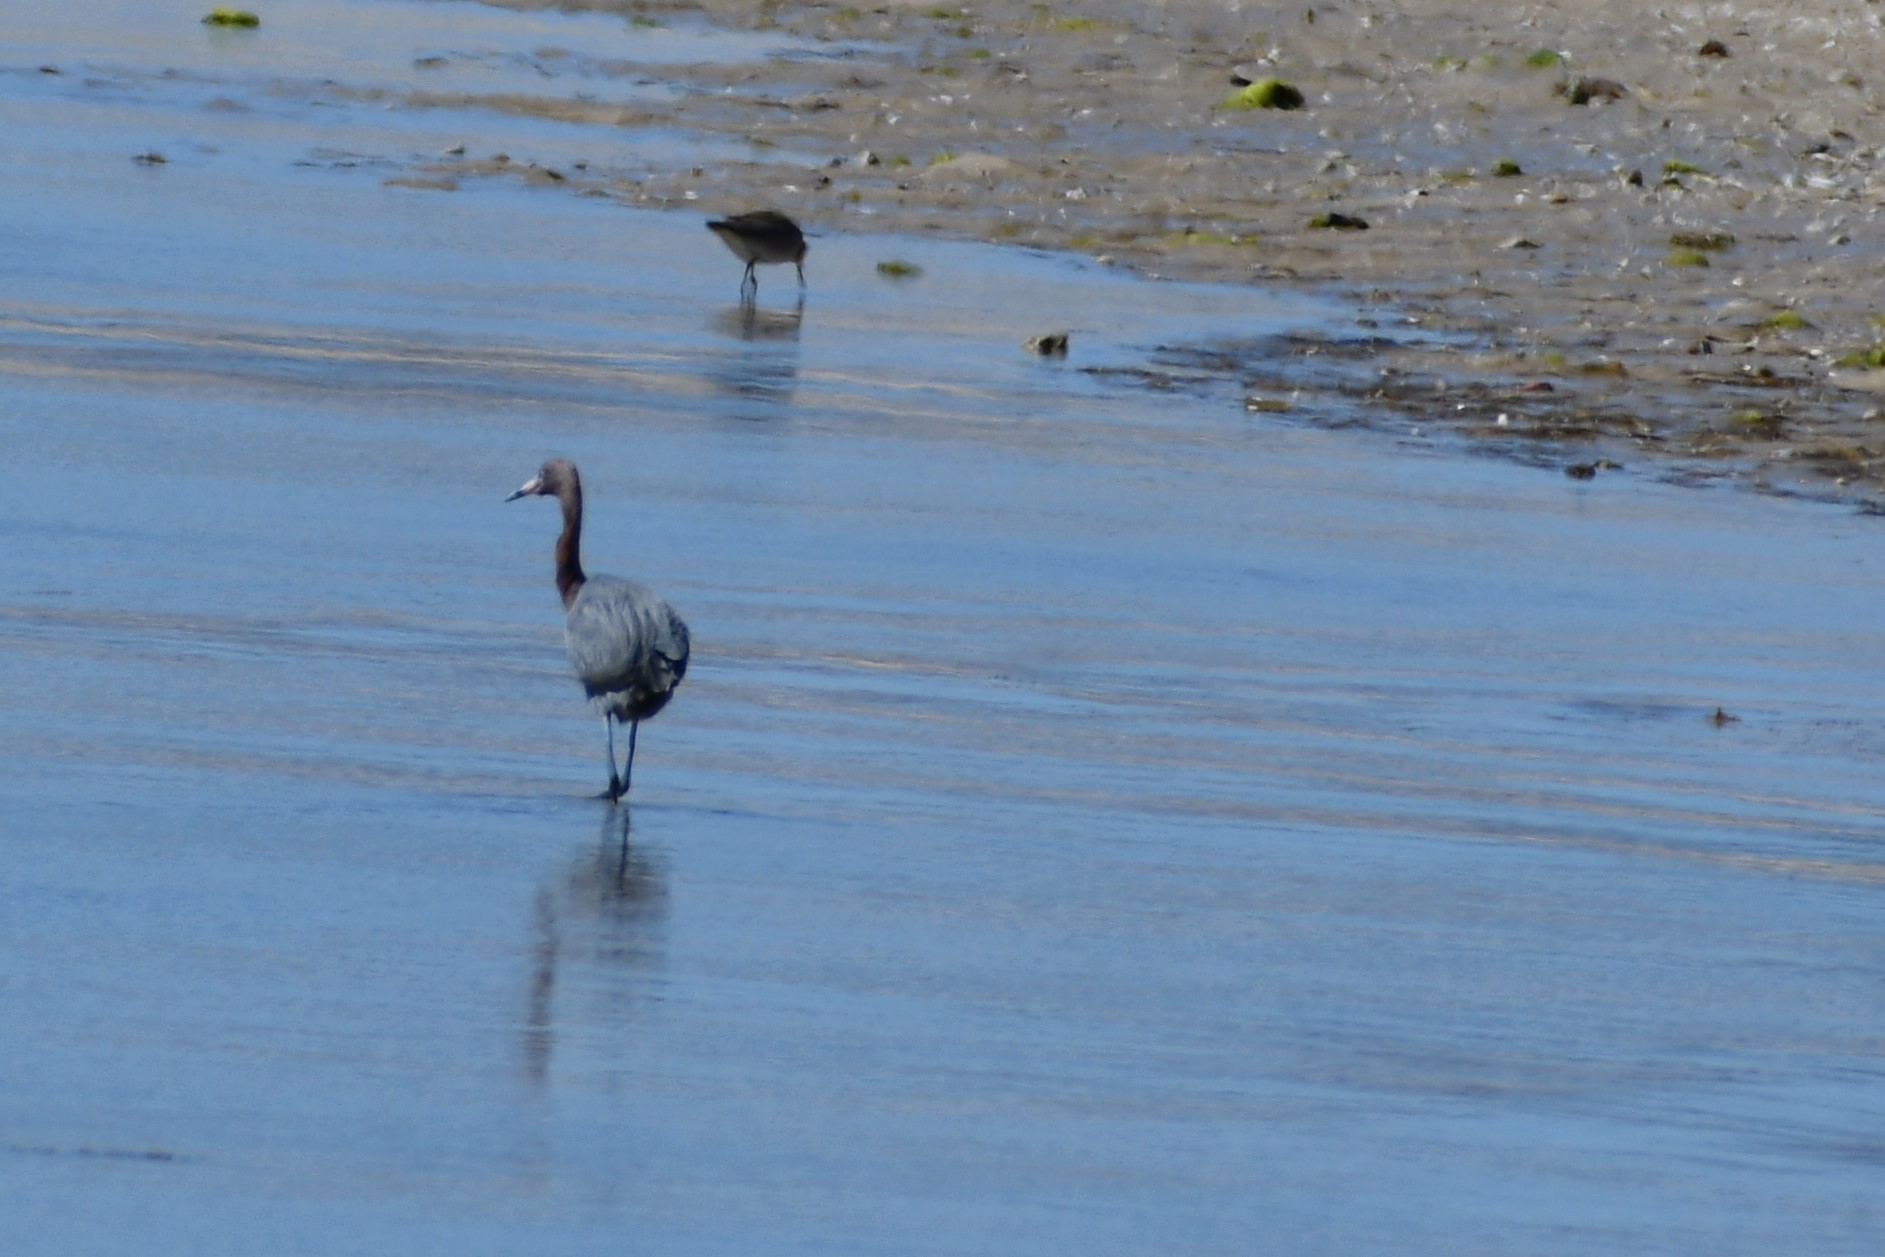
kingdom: Animalia
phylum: Chordata
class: Aves
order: Pelecaniformes
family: Ardeidae
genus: Egretta
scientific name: Egretta rufescens
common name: Reddish egret
